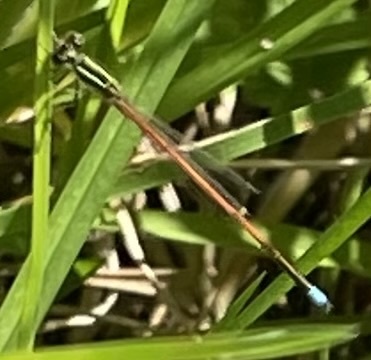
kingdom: Animalia
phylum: Arthropoda
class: Insecta
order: Odonata
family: Coenagrionidae
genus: Ischnura
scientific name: Ischnura aurora
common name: Gossamer damselfly
